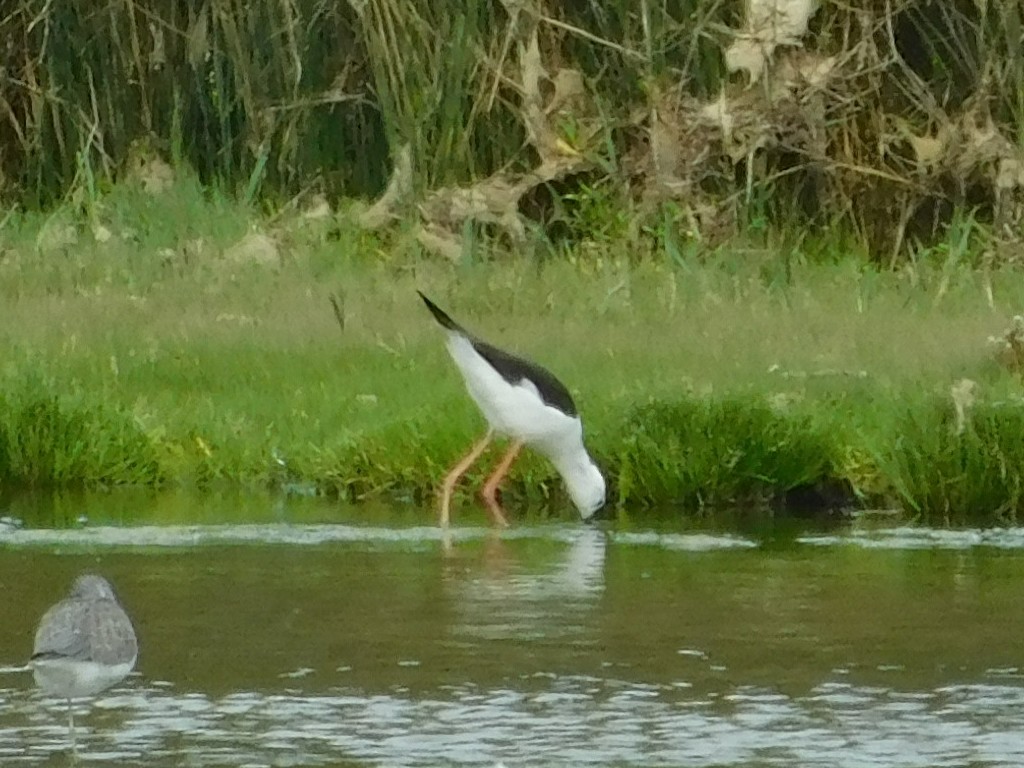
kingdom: Animalia
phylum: Chordata
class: Aves
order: Charadriiformes
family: Recurvirostridae
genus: Himantopus
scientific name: Himantopus himantopus
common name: Black-winged stilt
